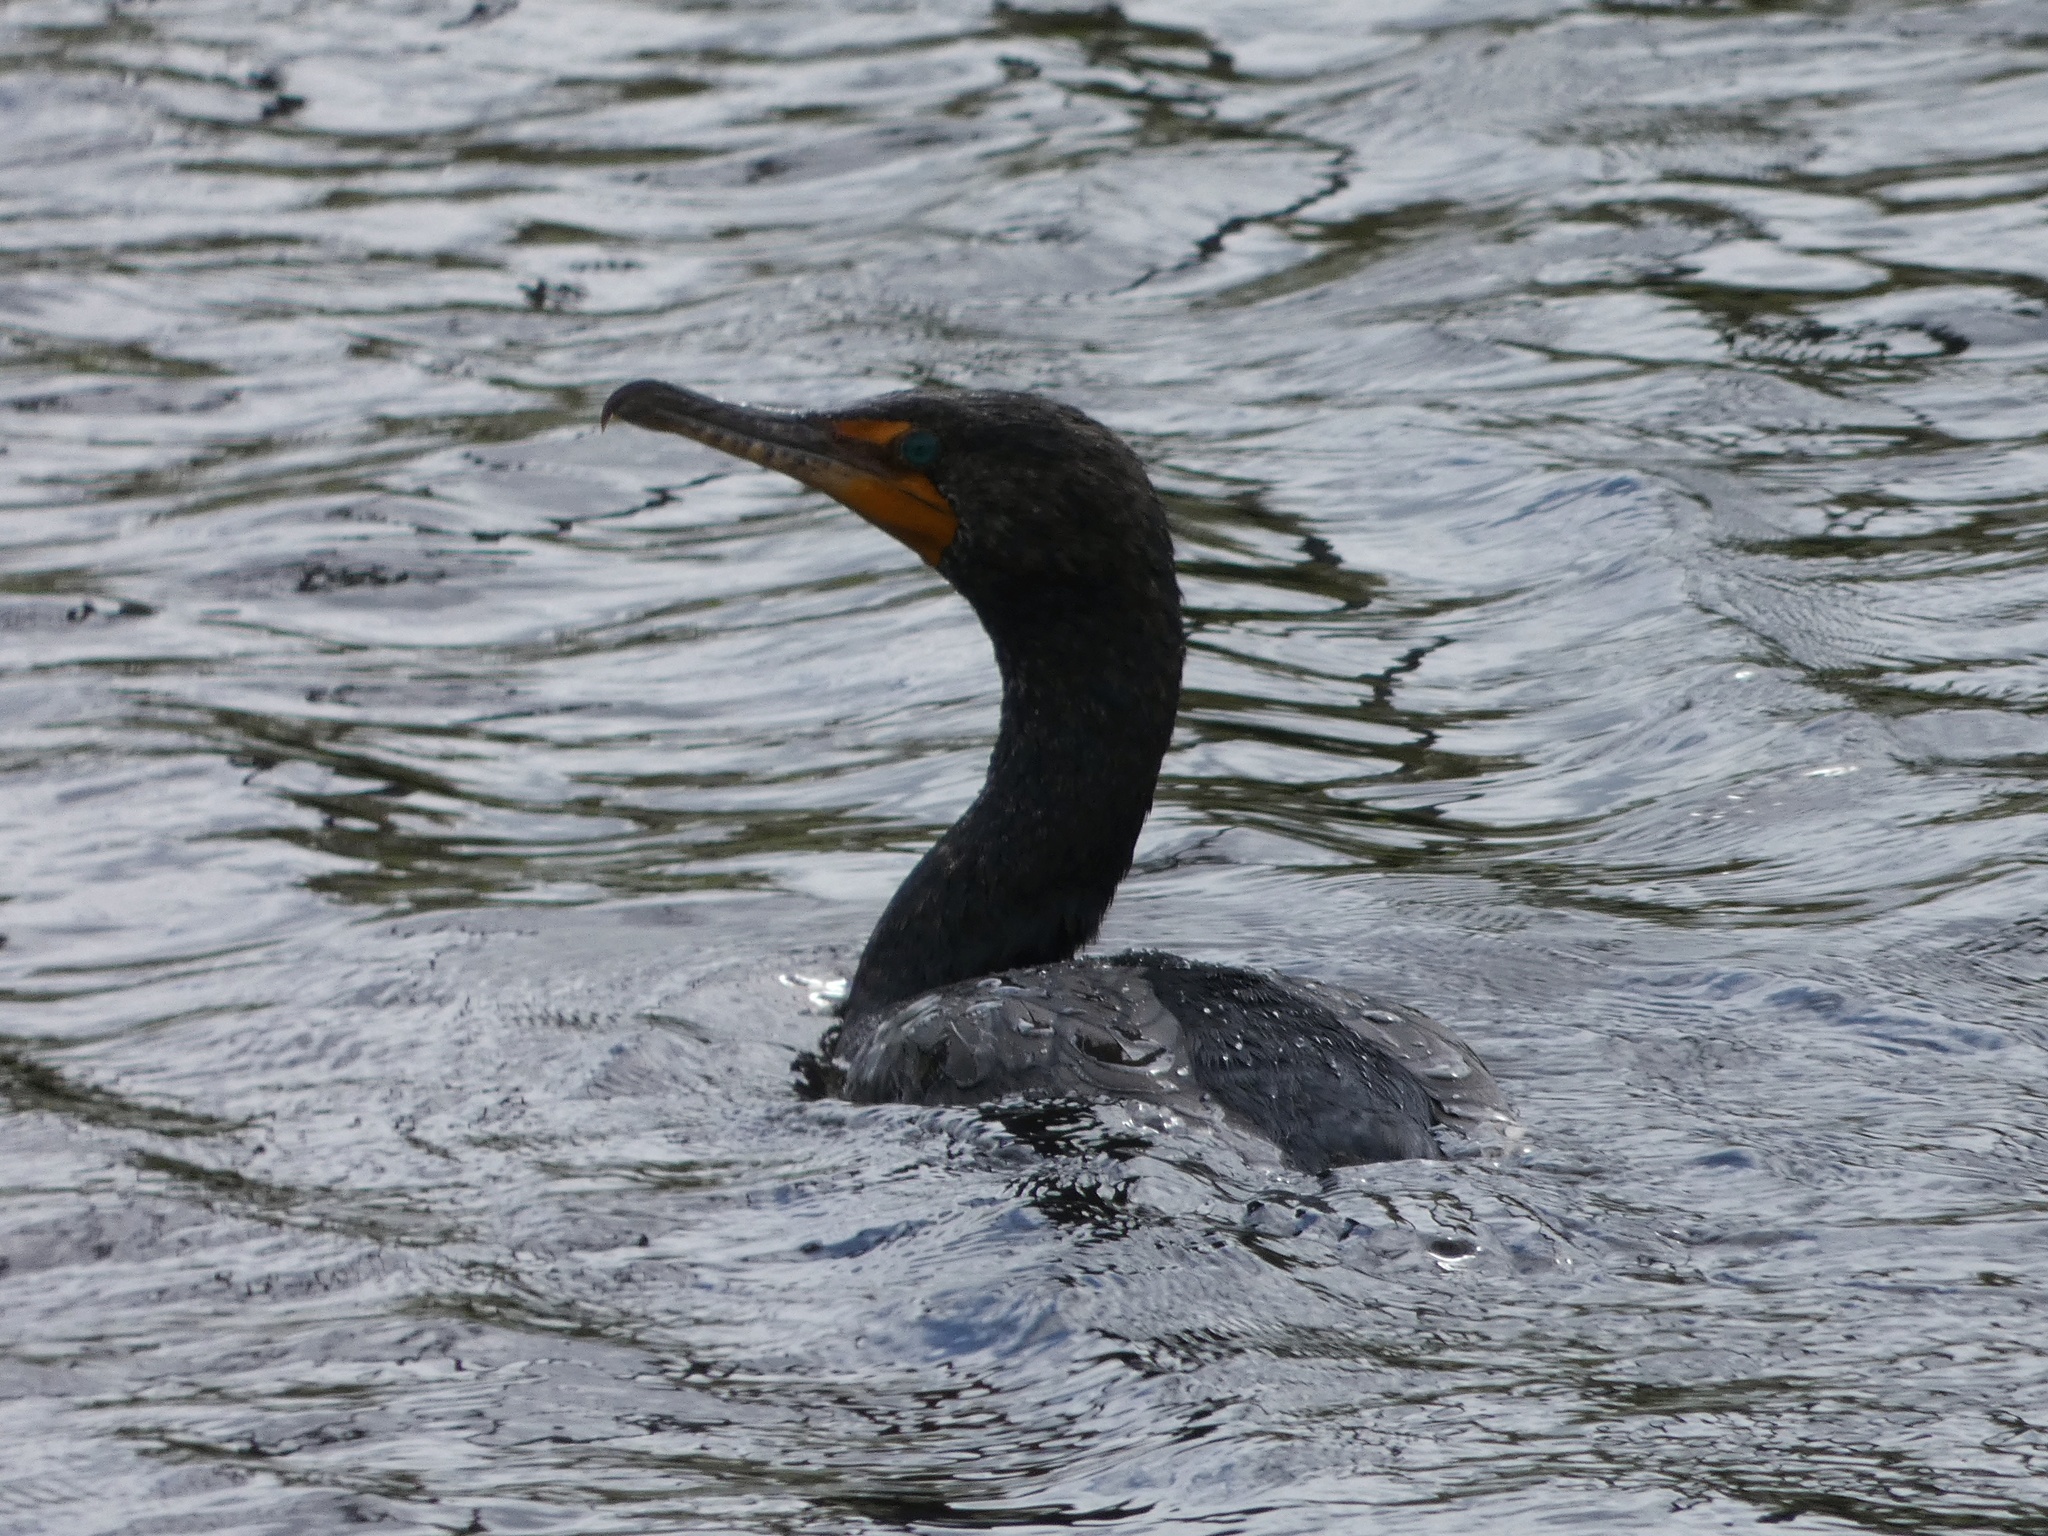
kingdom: Animalia
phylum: Chordata
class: Aves
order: Suliformes
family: Phalacrocoracidae
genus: Phalacrocorax
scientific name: Phalacrocorax auritus
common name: Double-crested cormorant
